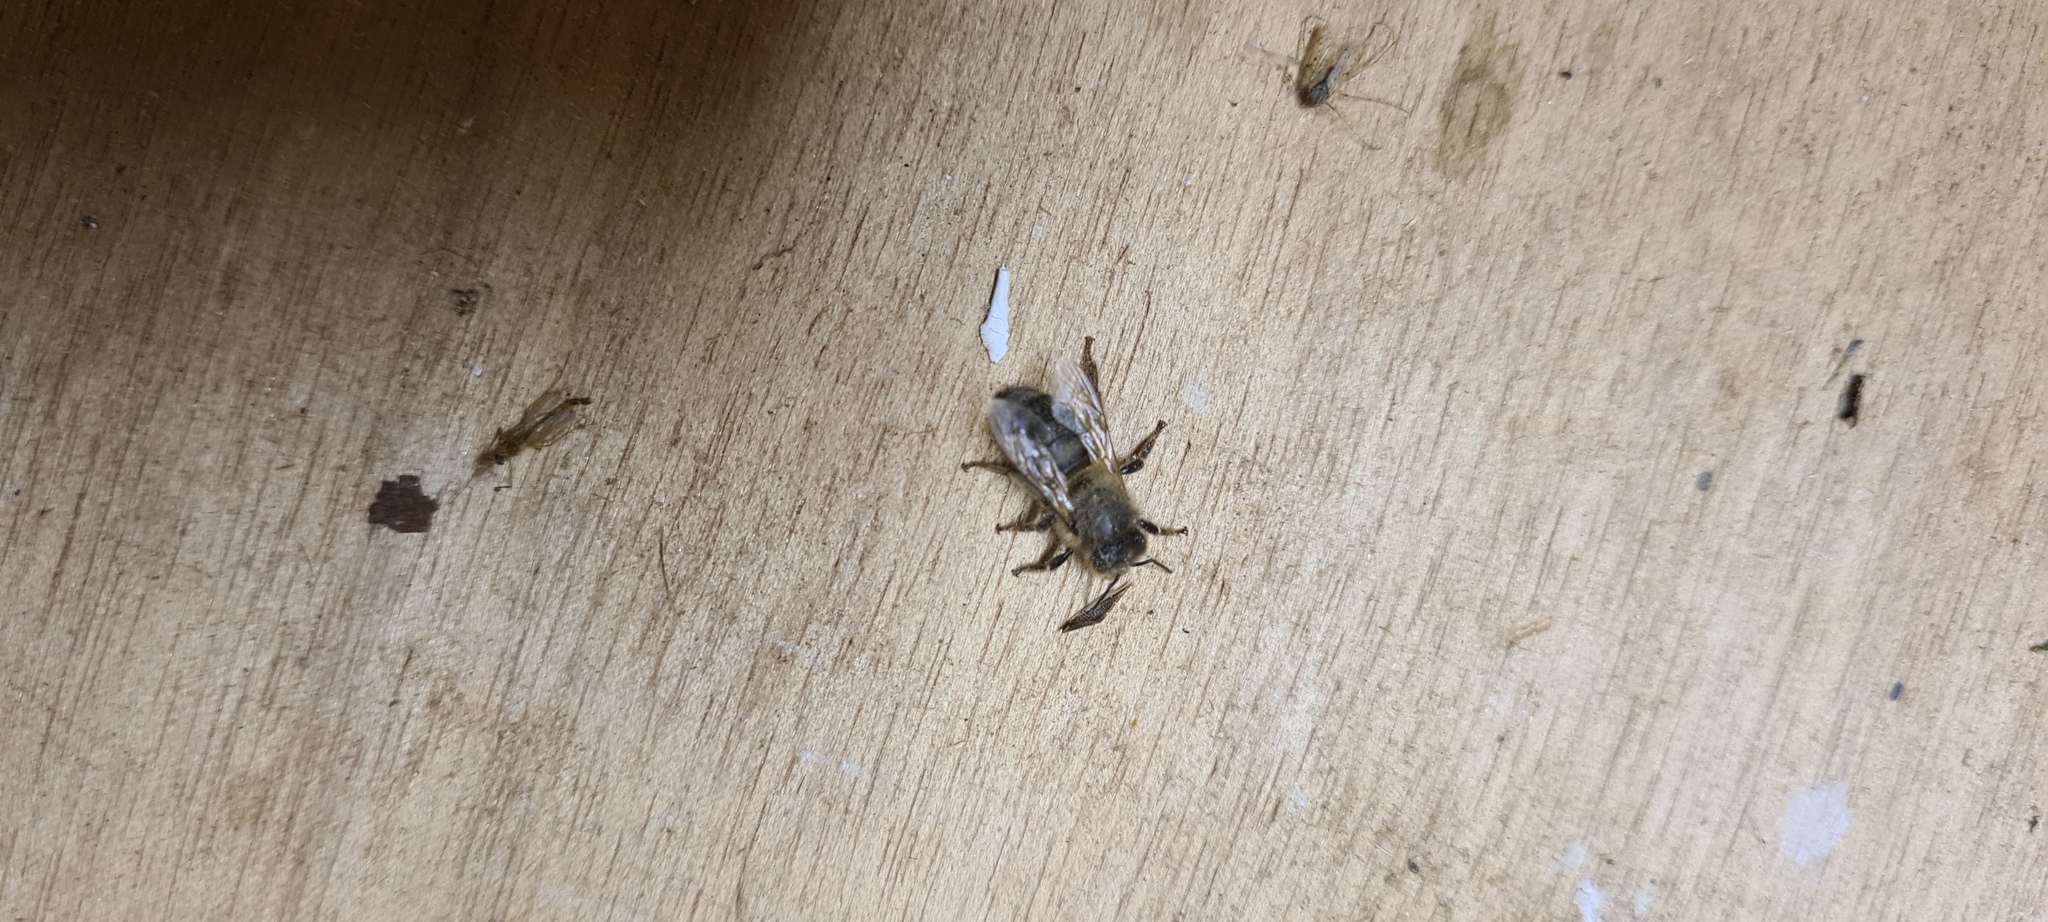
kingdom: Animalia
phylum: Arthropoda
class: Insecta
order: Hymenoptera
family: Apidae
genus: Apis
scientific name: Apis mellifera
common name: Honey bee
